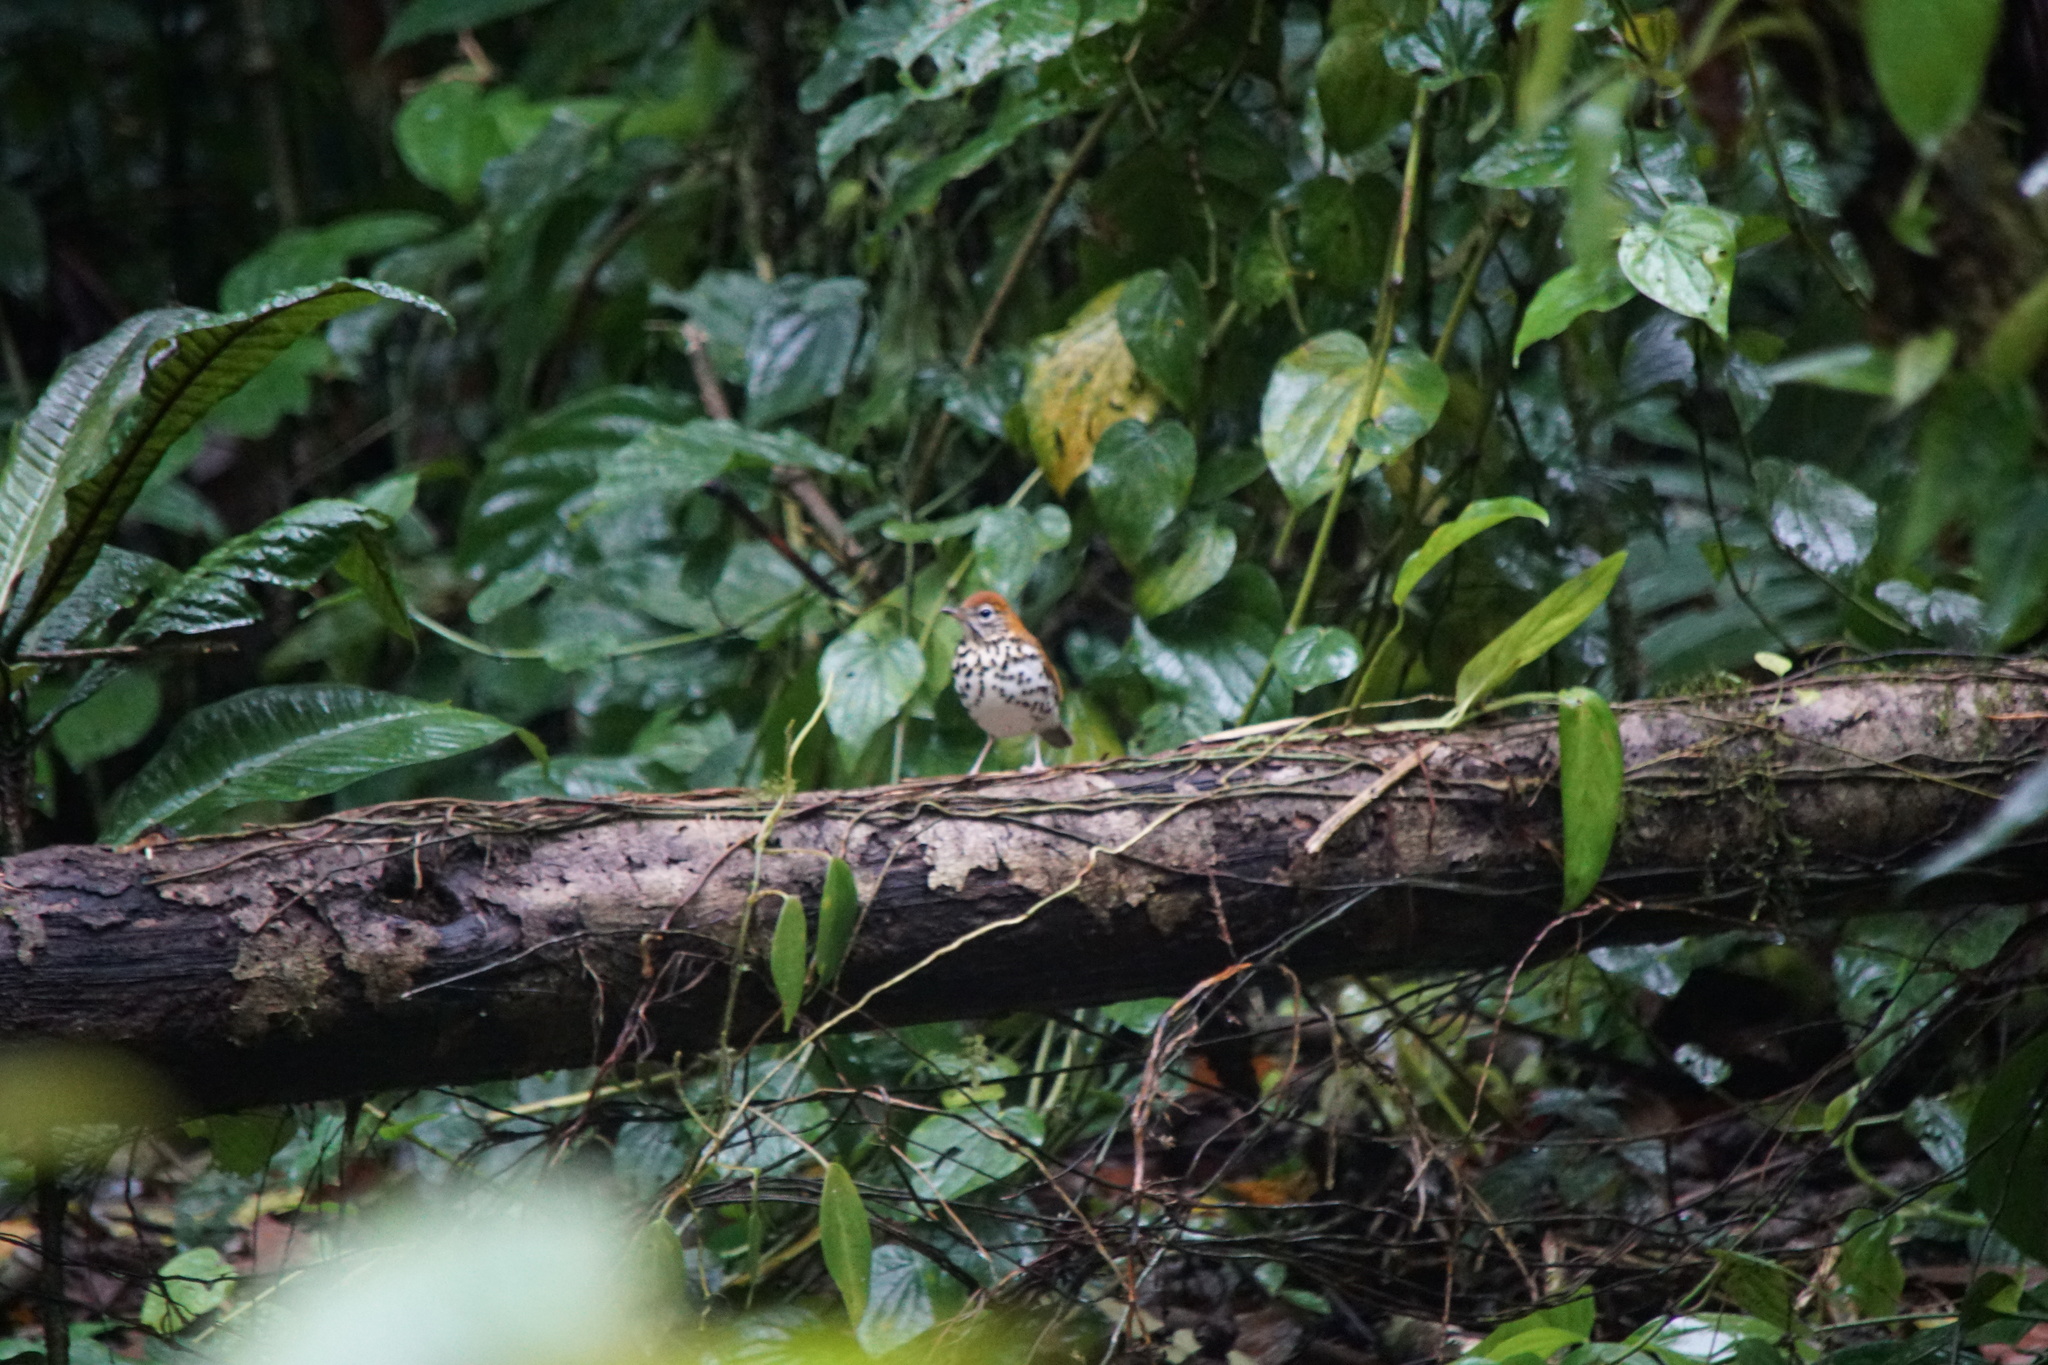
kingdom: Animalia
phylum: Chordata
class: Aves
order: Passeriformes
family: Turdidae
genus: Hylocichla
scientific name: Hylocichla mustelina
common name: Wood thrush
